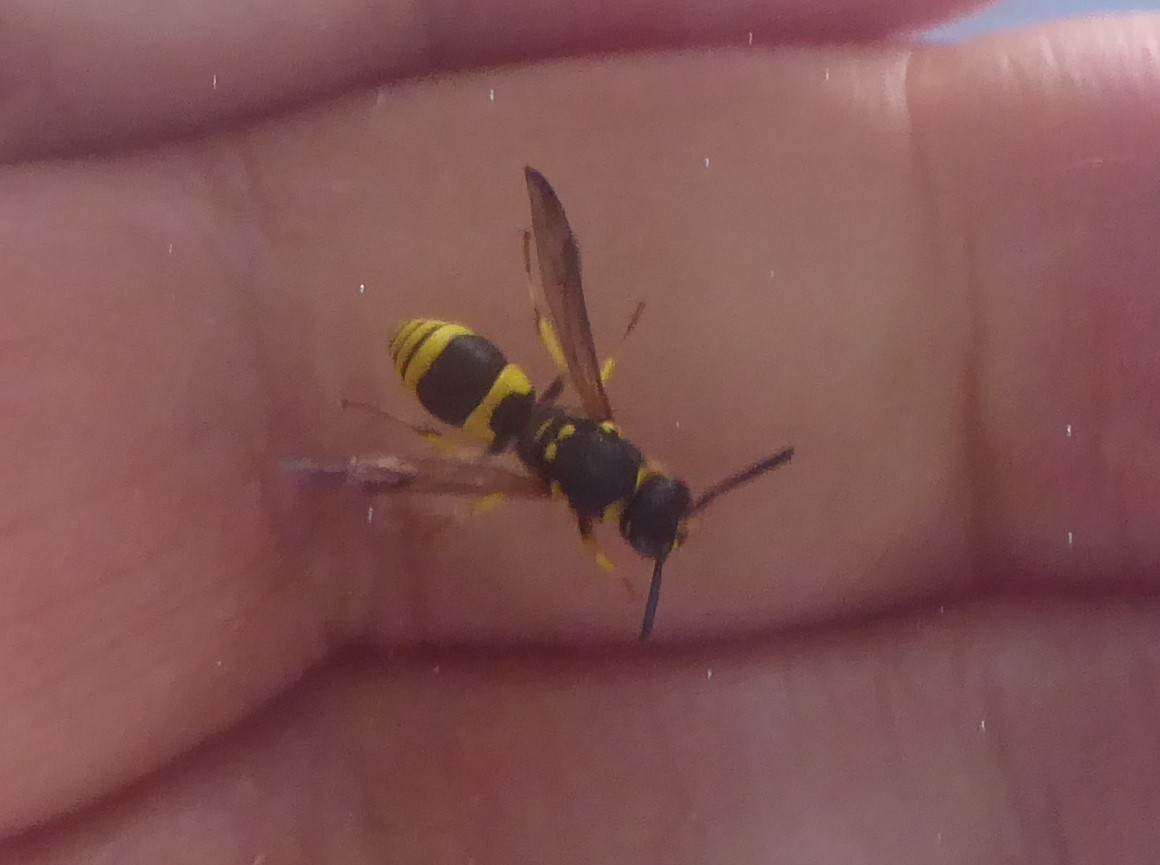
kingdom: Animalia
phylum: Arthropoda
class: Insecta
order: Hymenoptera
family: Vespidae
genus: Ancistrocerus
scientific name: Ancistrocerus gazella
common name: European tube wasp
